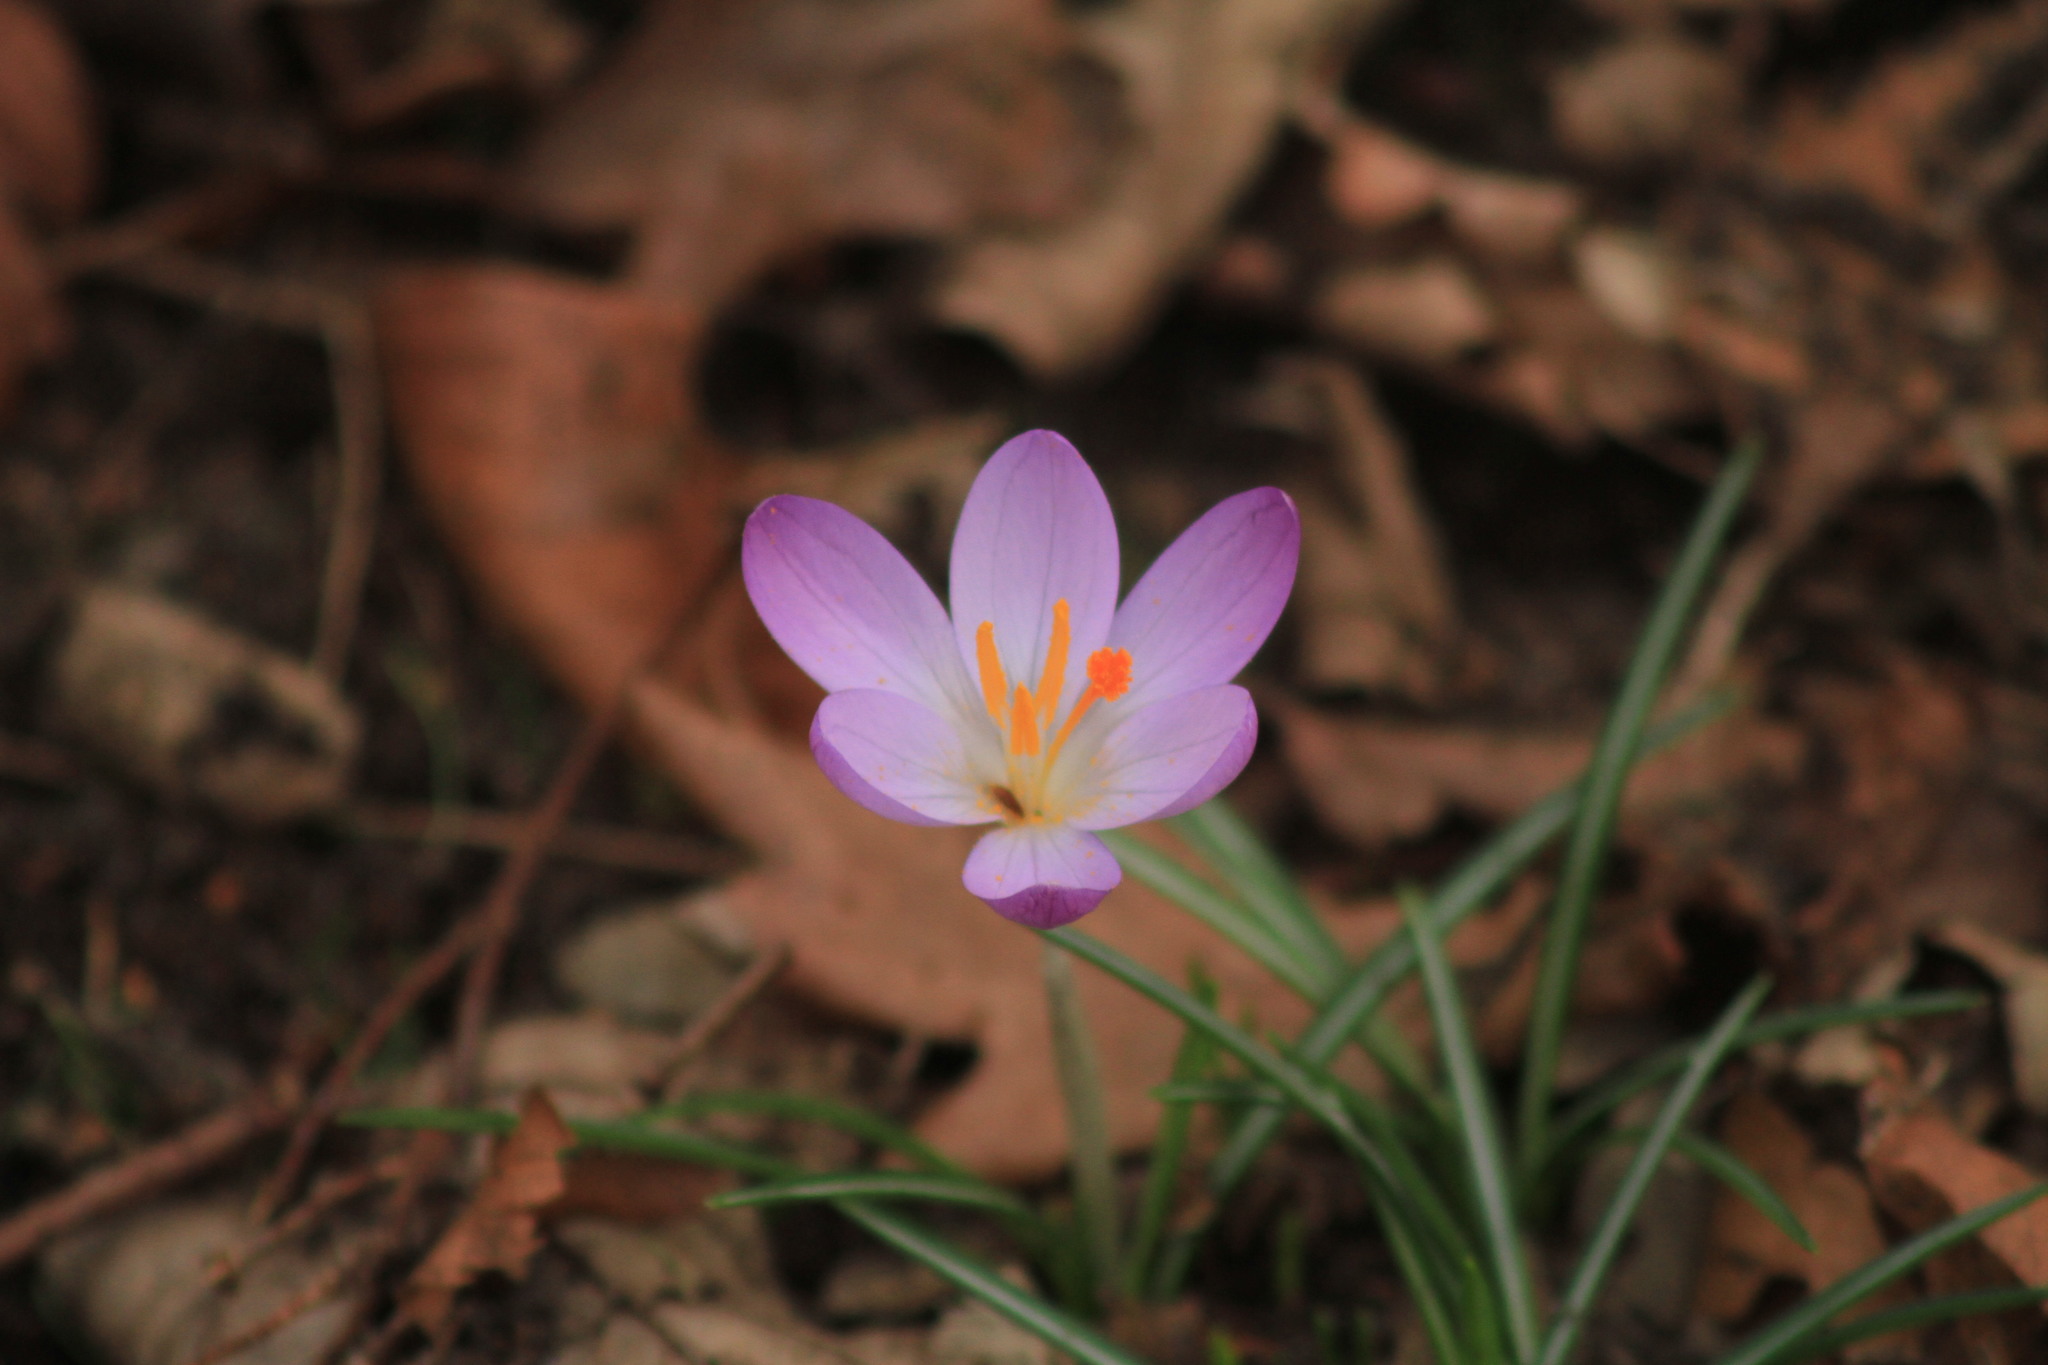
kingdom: Plantae
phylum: Tracheophyta
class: Liliopsida
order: Asparagales
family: Iridaceae
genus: Crocus
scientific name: Crocus tommasinianus
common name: Early crocus
